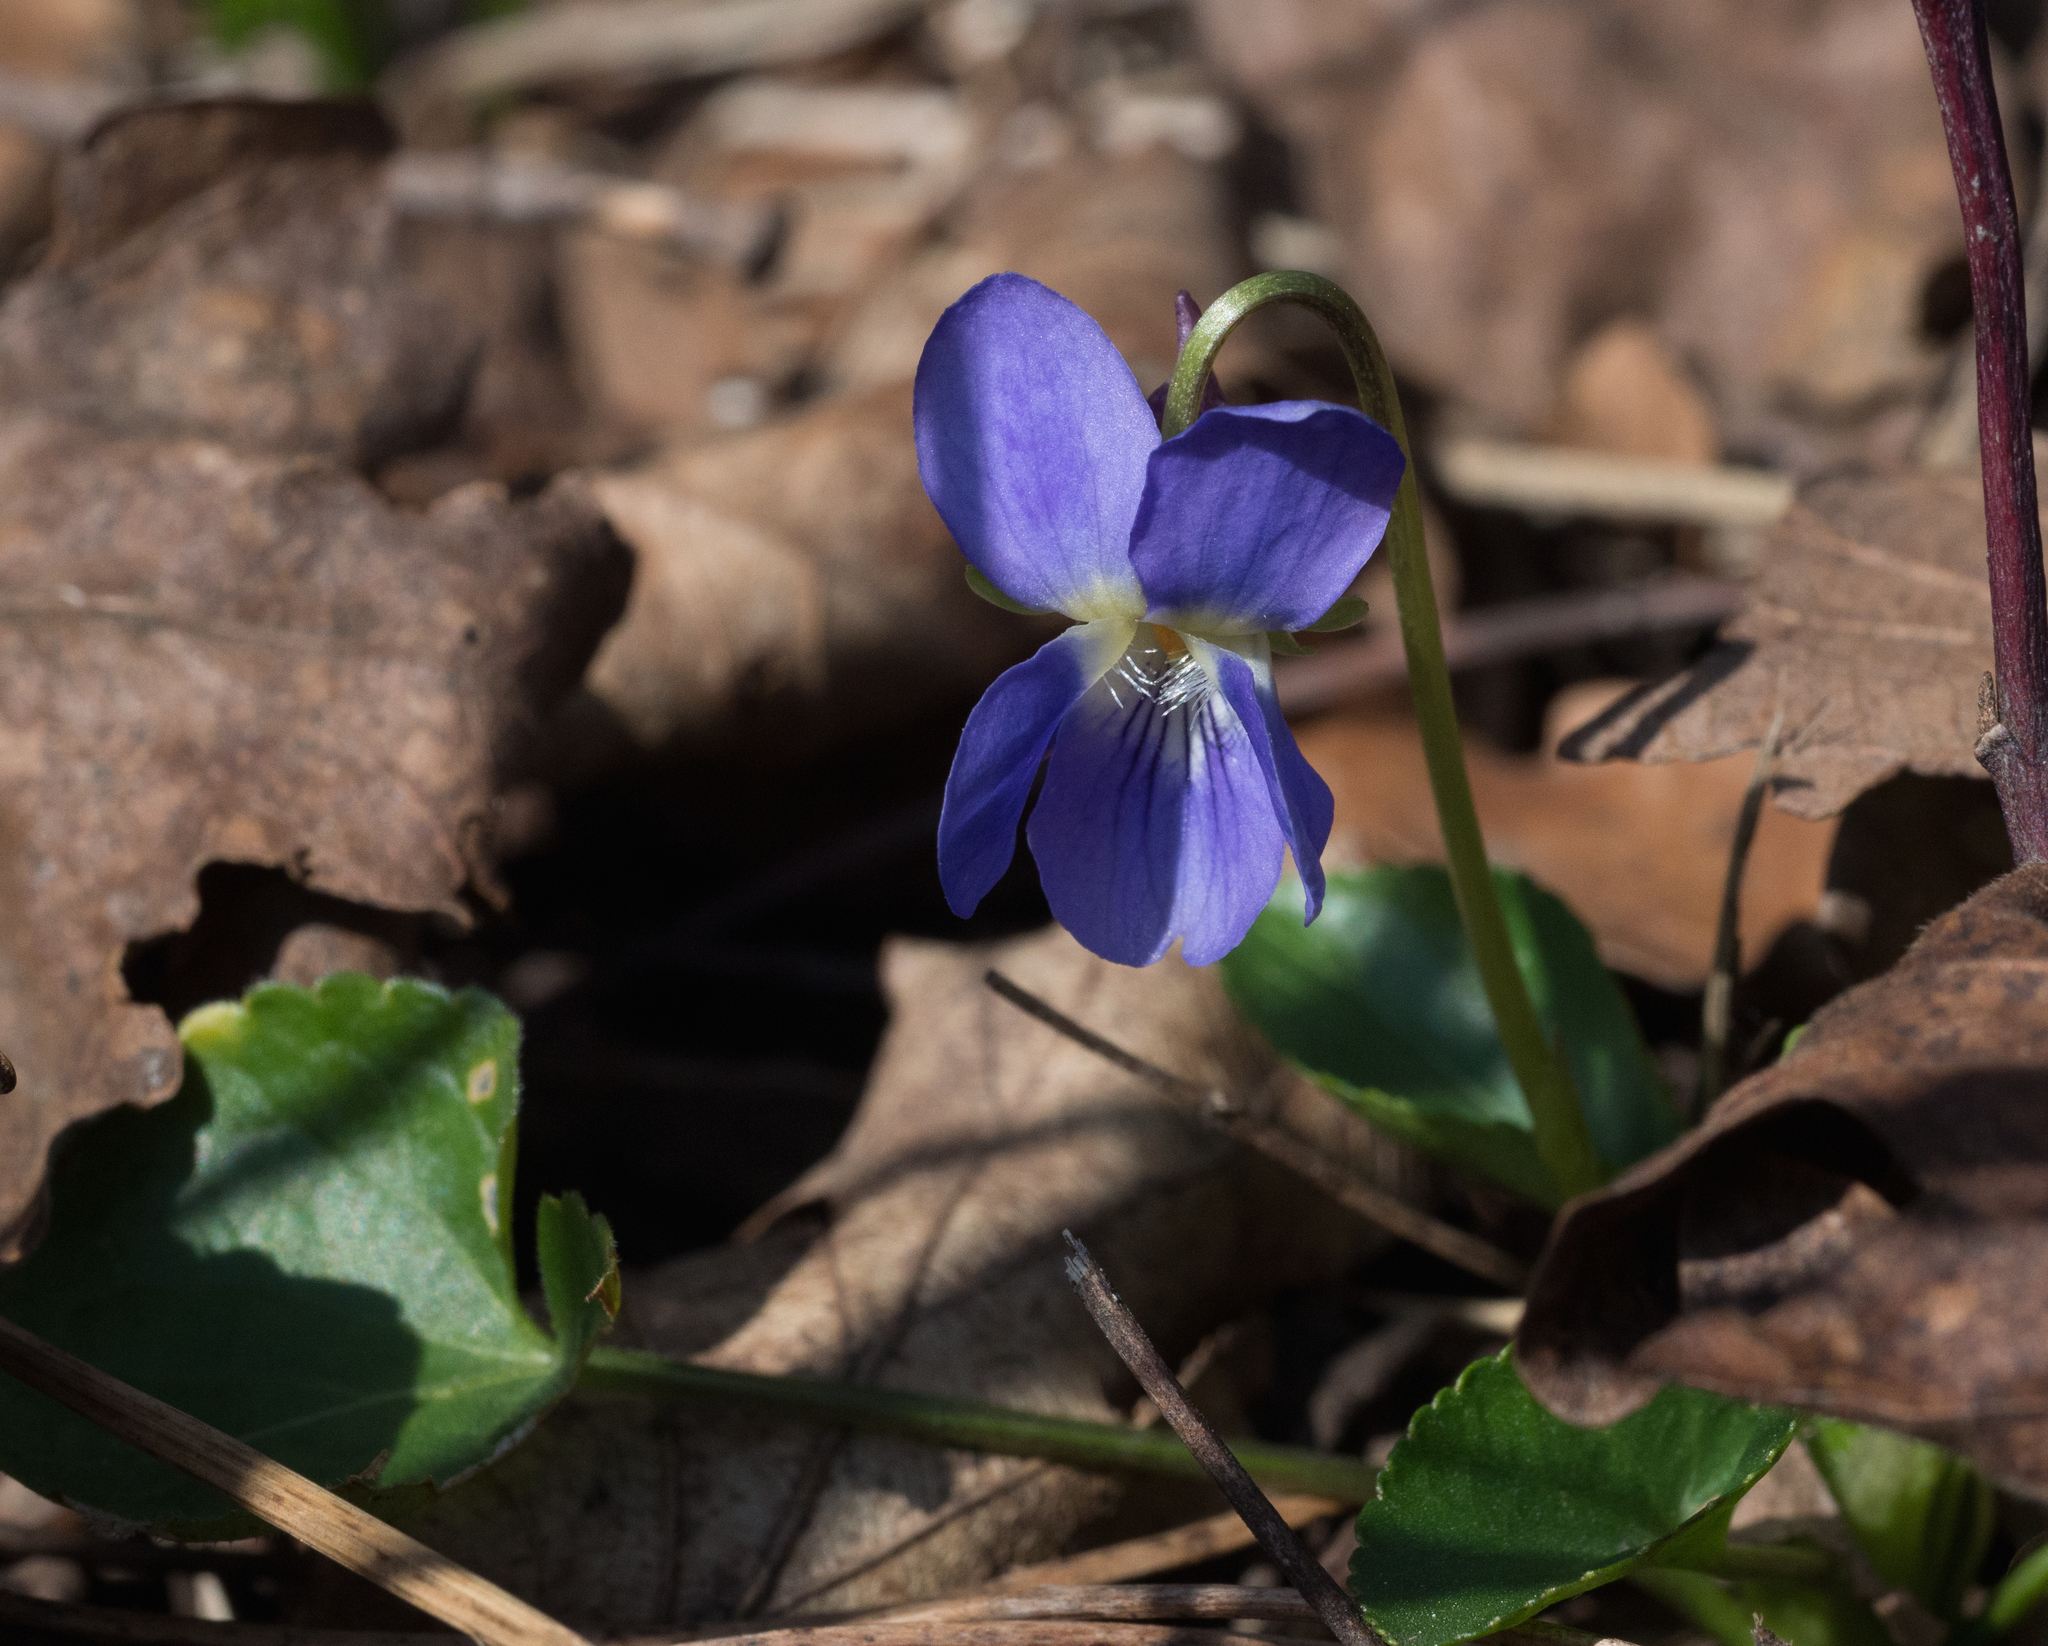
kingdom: Plantae
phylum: Tracheophyta
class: Magnoliopsida
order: Malpighiales
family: Violaceae
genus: Viola
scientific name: Viola reichenbachiana
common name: Early dog-violet
